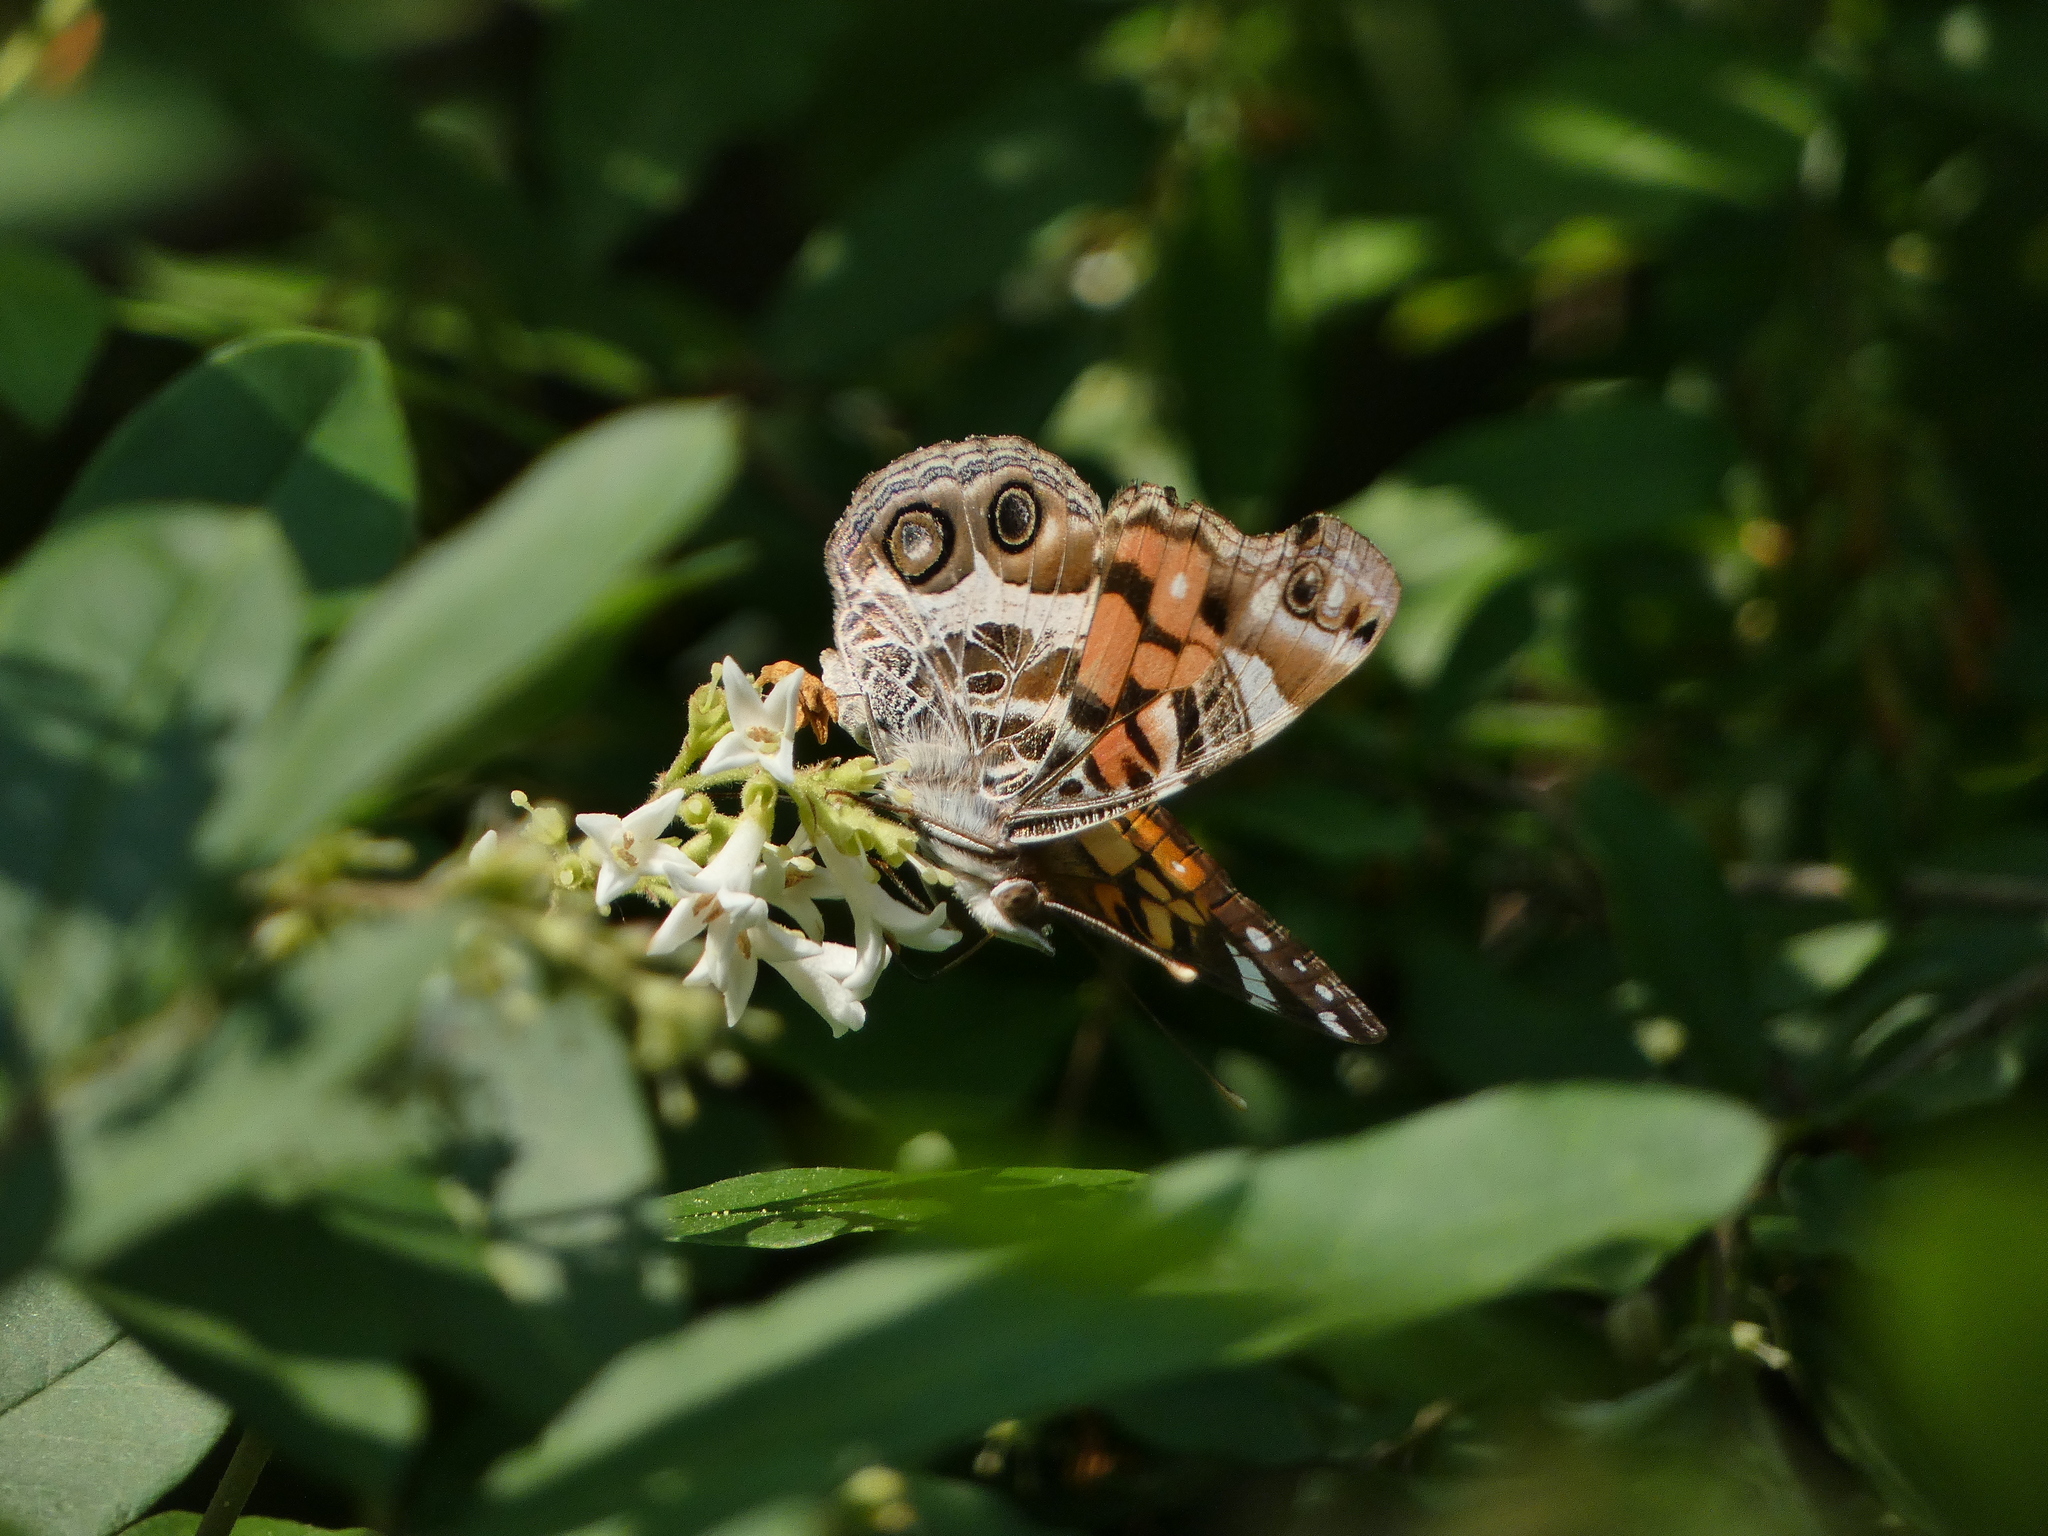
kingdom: Animalia
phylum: Arthropoda
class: Insecta
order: Lepidoptera
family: Nymphalidae
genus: Vanessa
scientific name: Vanessa virginiensis
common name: American lady
